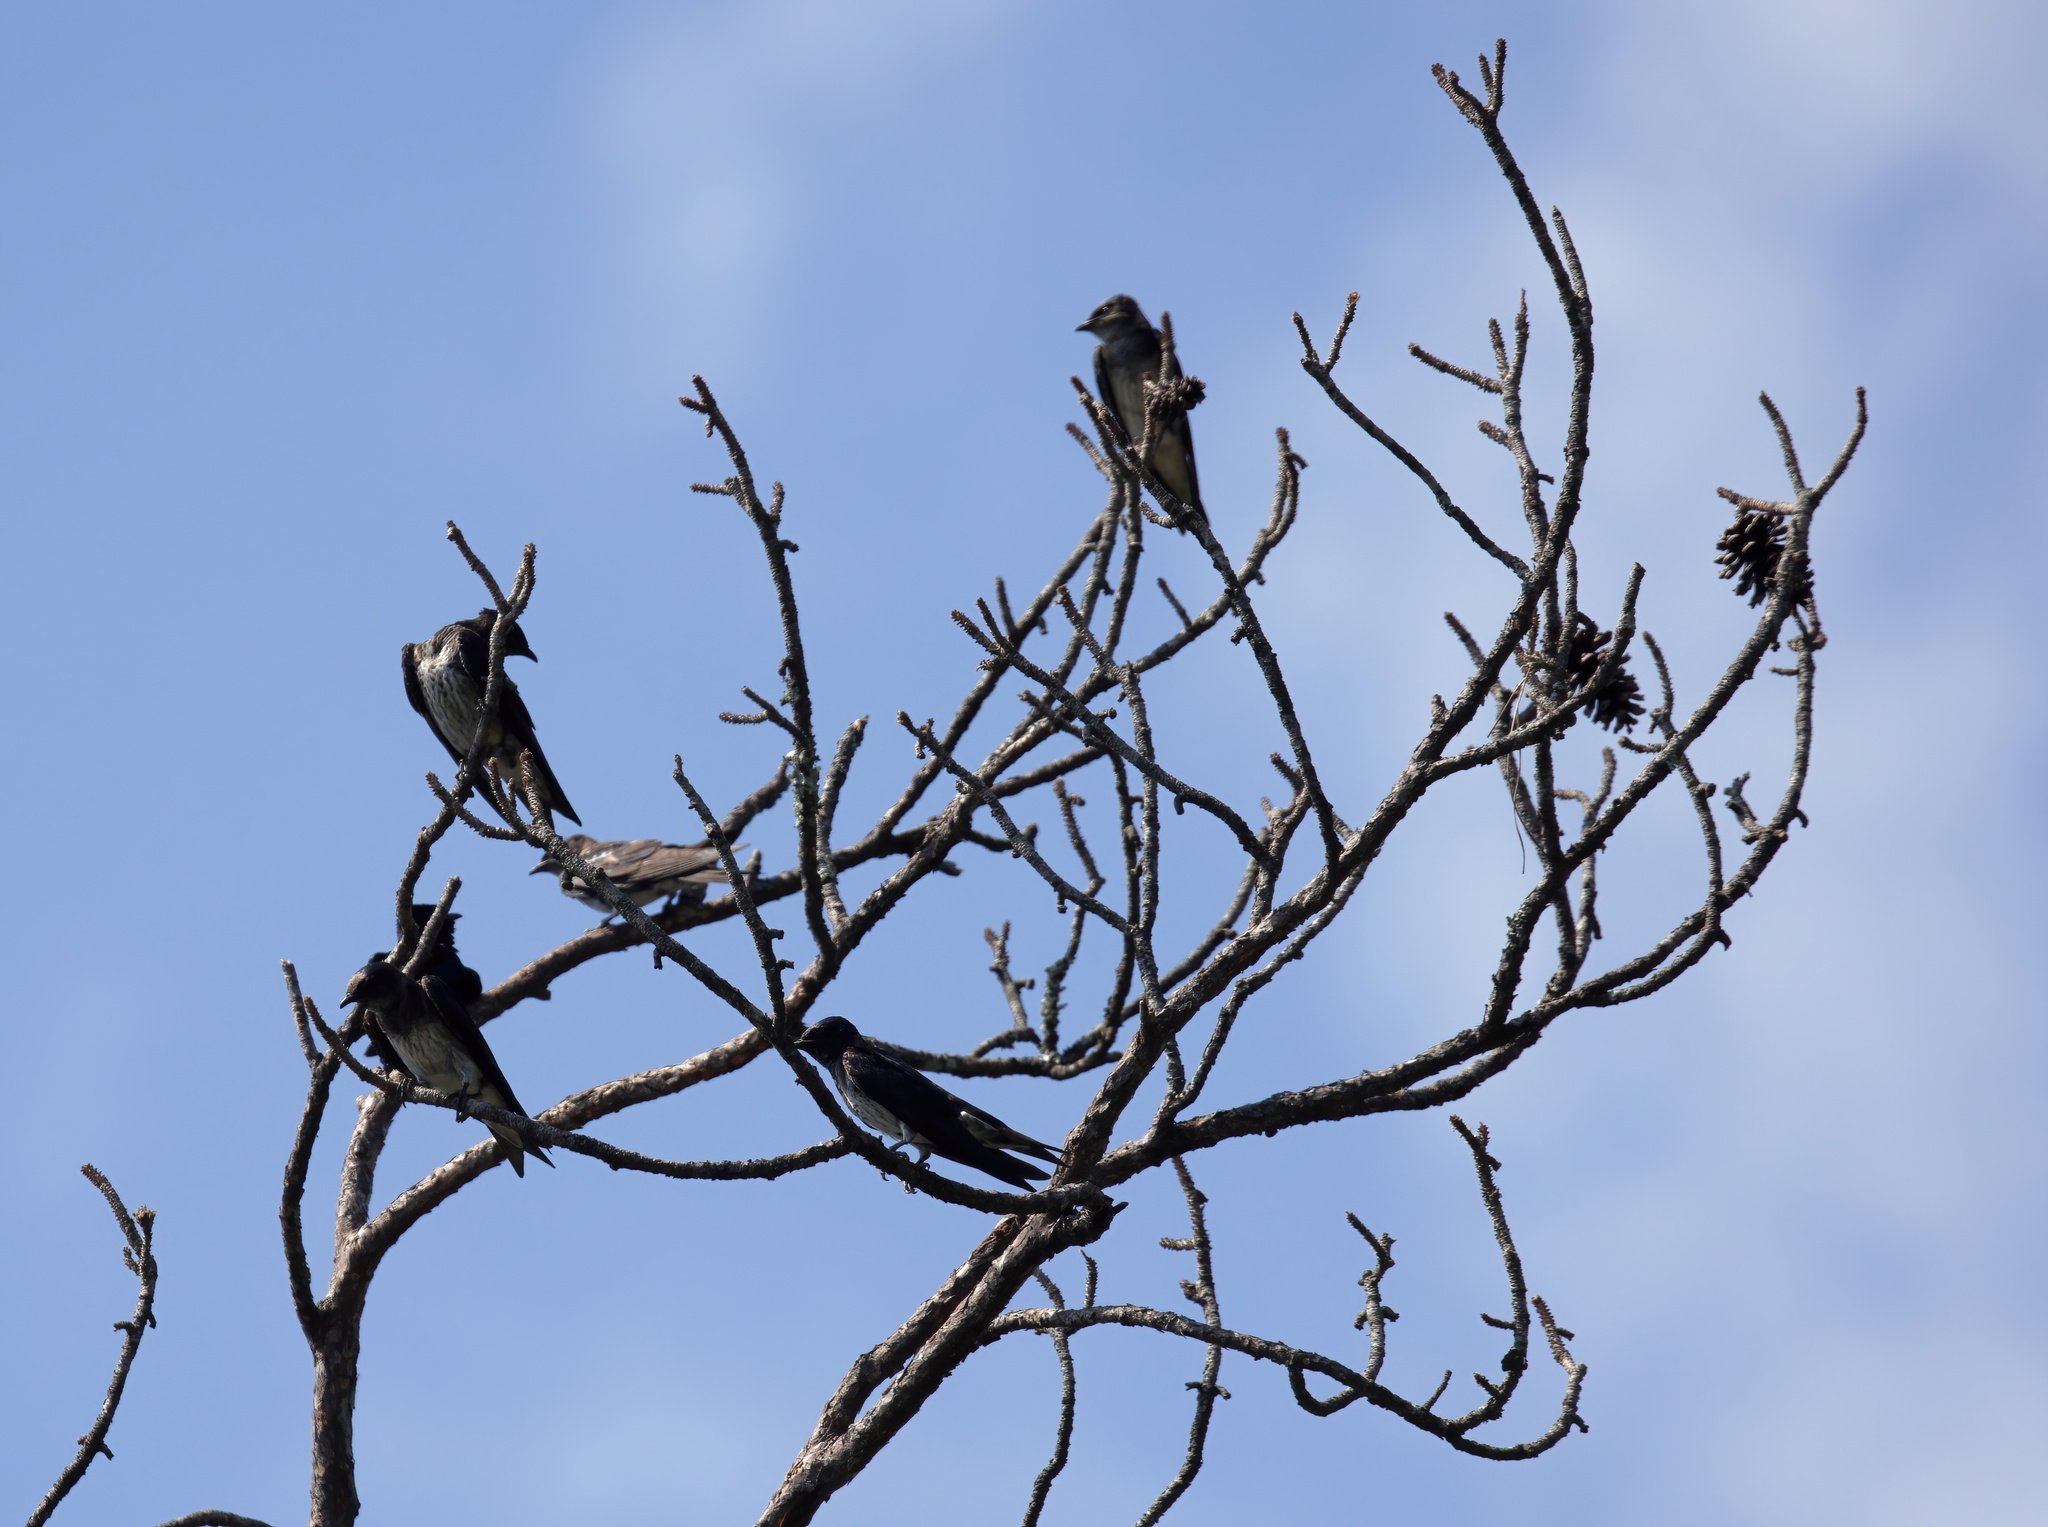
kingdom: Animalia
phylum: Chordata
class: Aves
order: Passeriformes
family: Hirundinidae
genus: Progne
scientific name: Progne subis
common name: Purple martin
